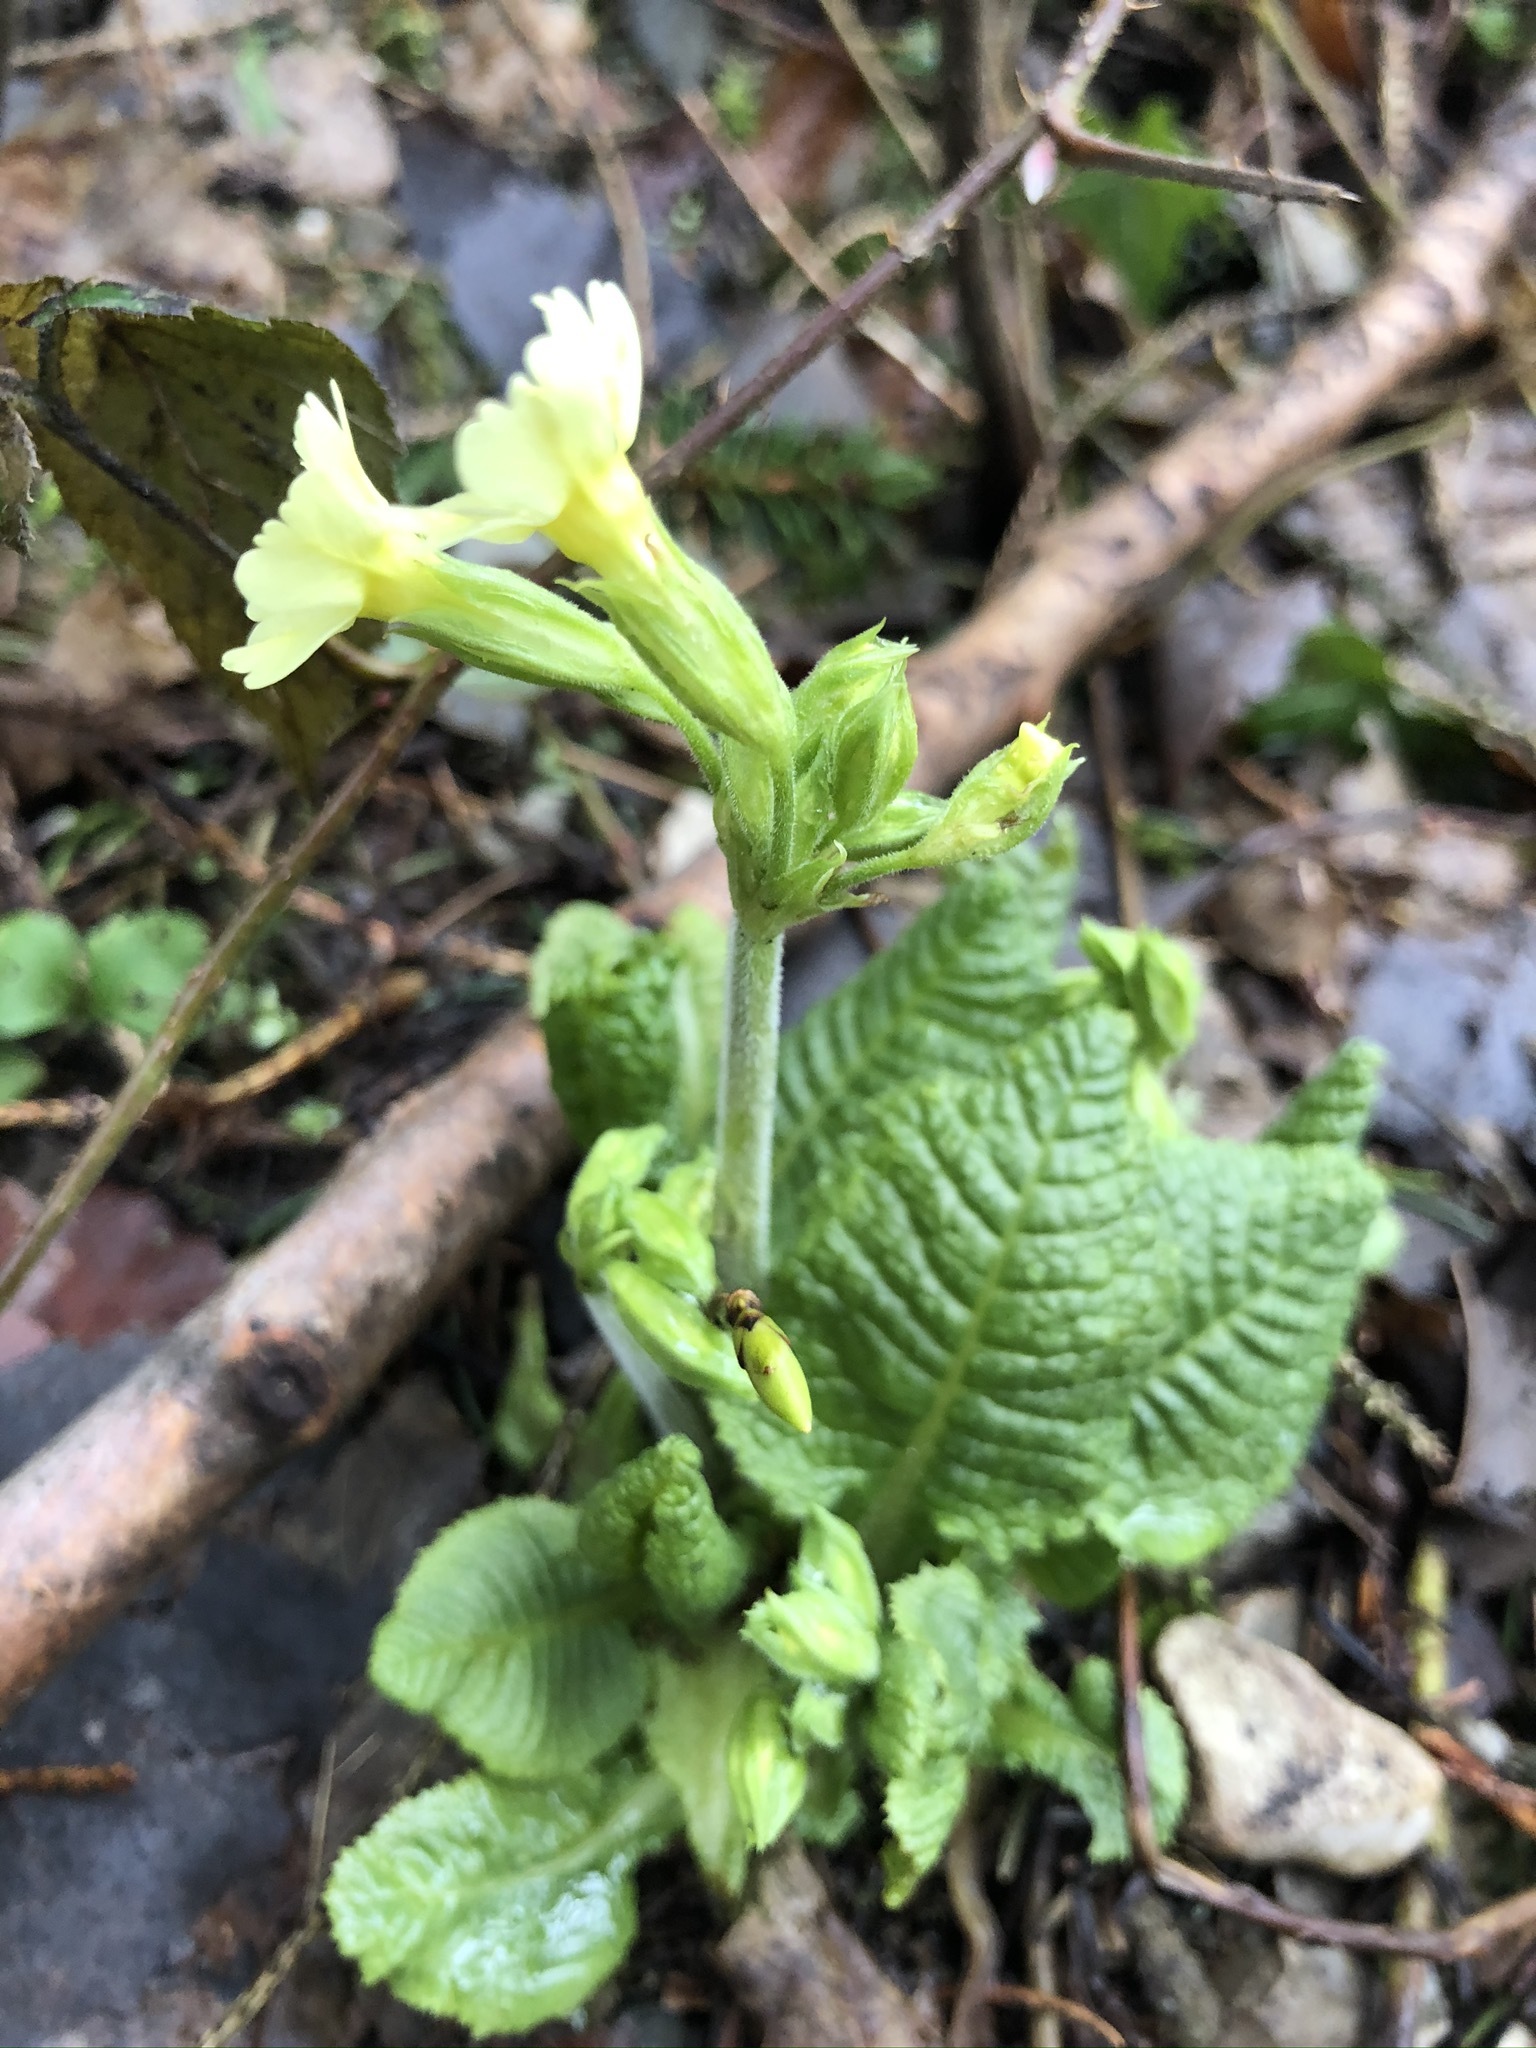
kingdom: Plantae
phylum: Tracheophyta
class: Magnoliopsida
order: Ericales
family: Primulaceae
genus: Primula
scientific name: Primula elatior
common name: Oxlip
